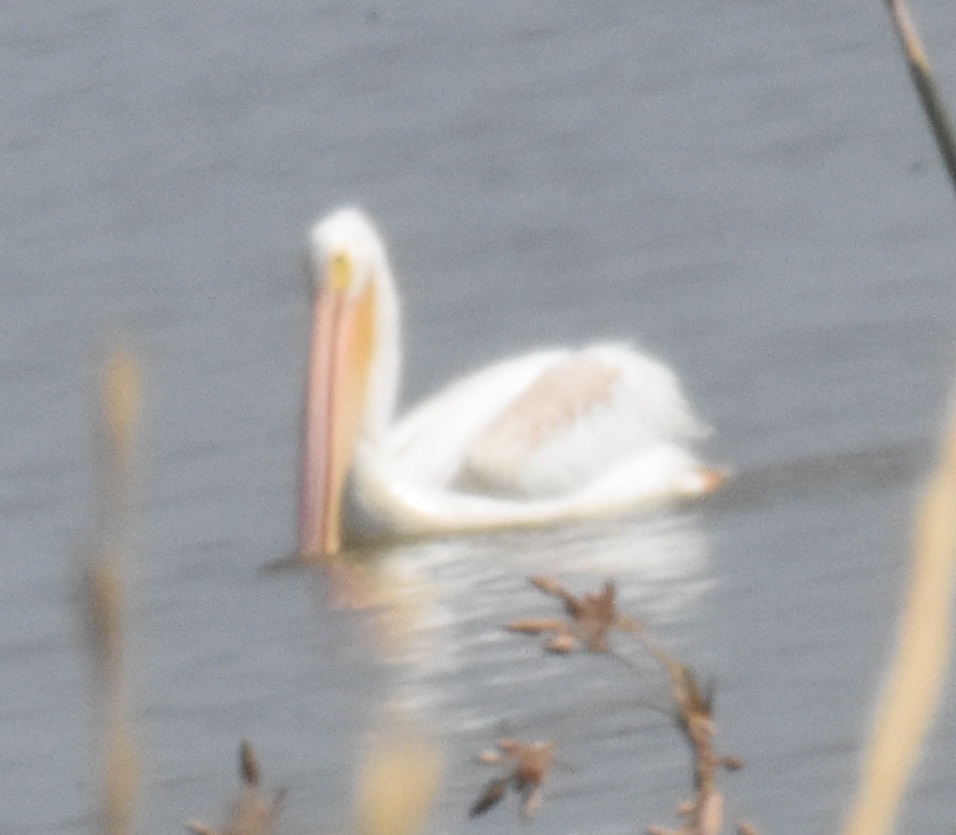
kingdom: Animalia
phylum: Chordata
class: Aves
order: Pelecaniformes
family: Pelecanidae
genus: Pelecanus
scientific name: Pelecanus erythrorhynchos
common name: American white pelican
